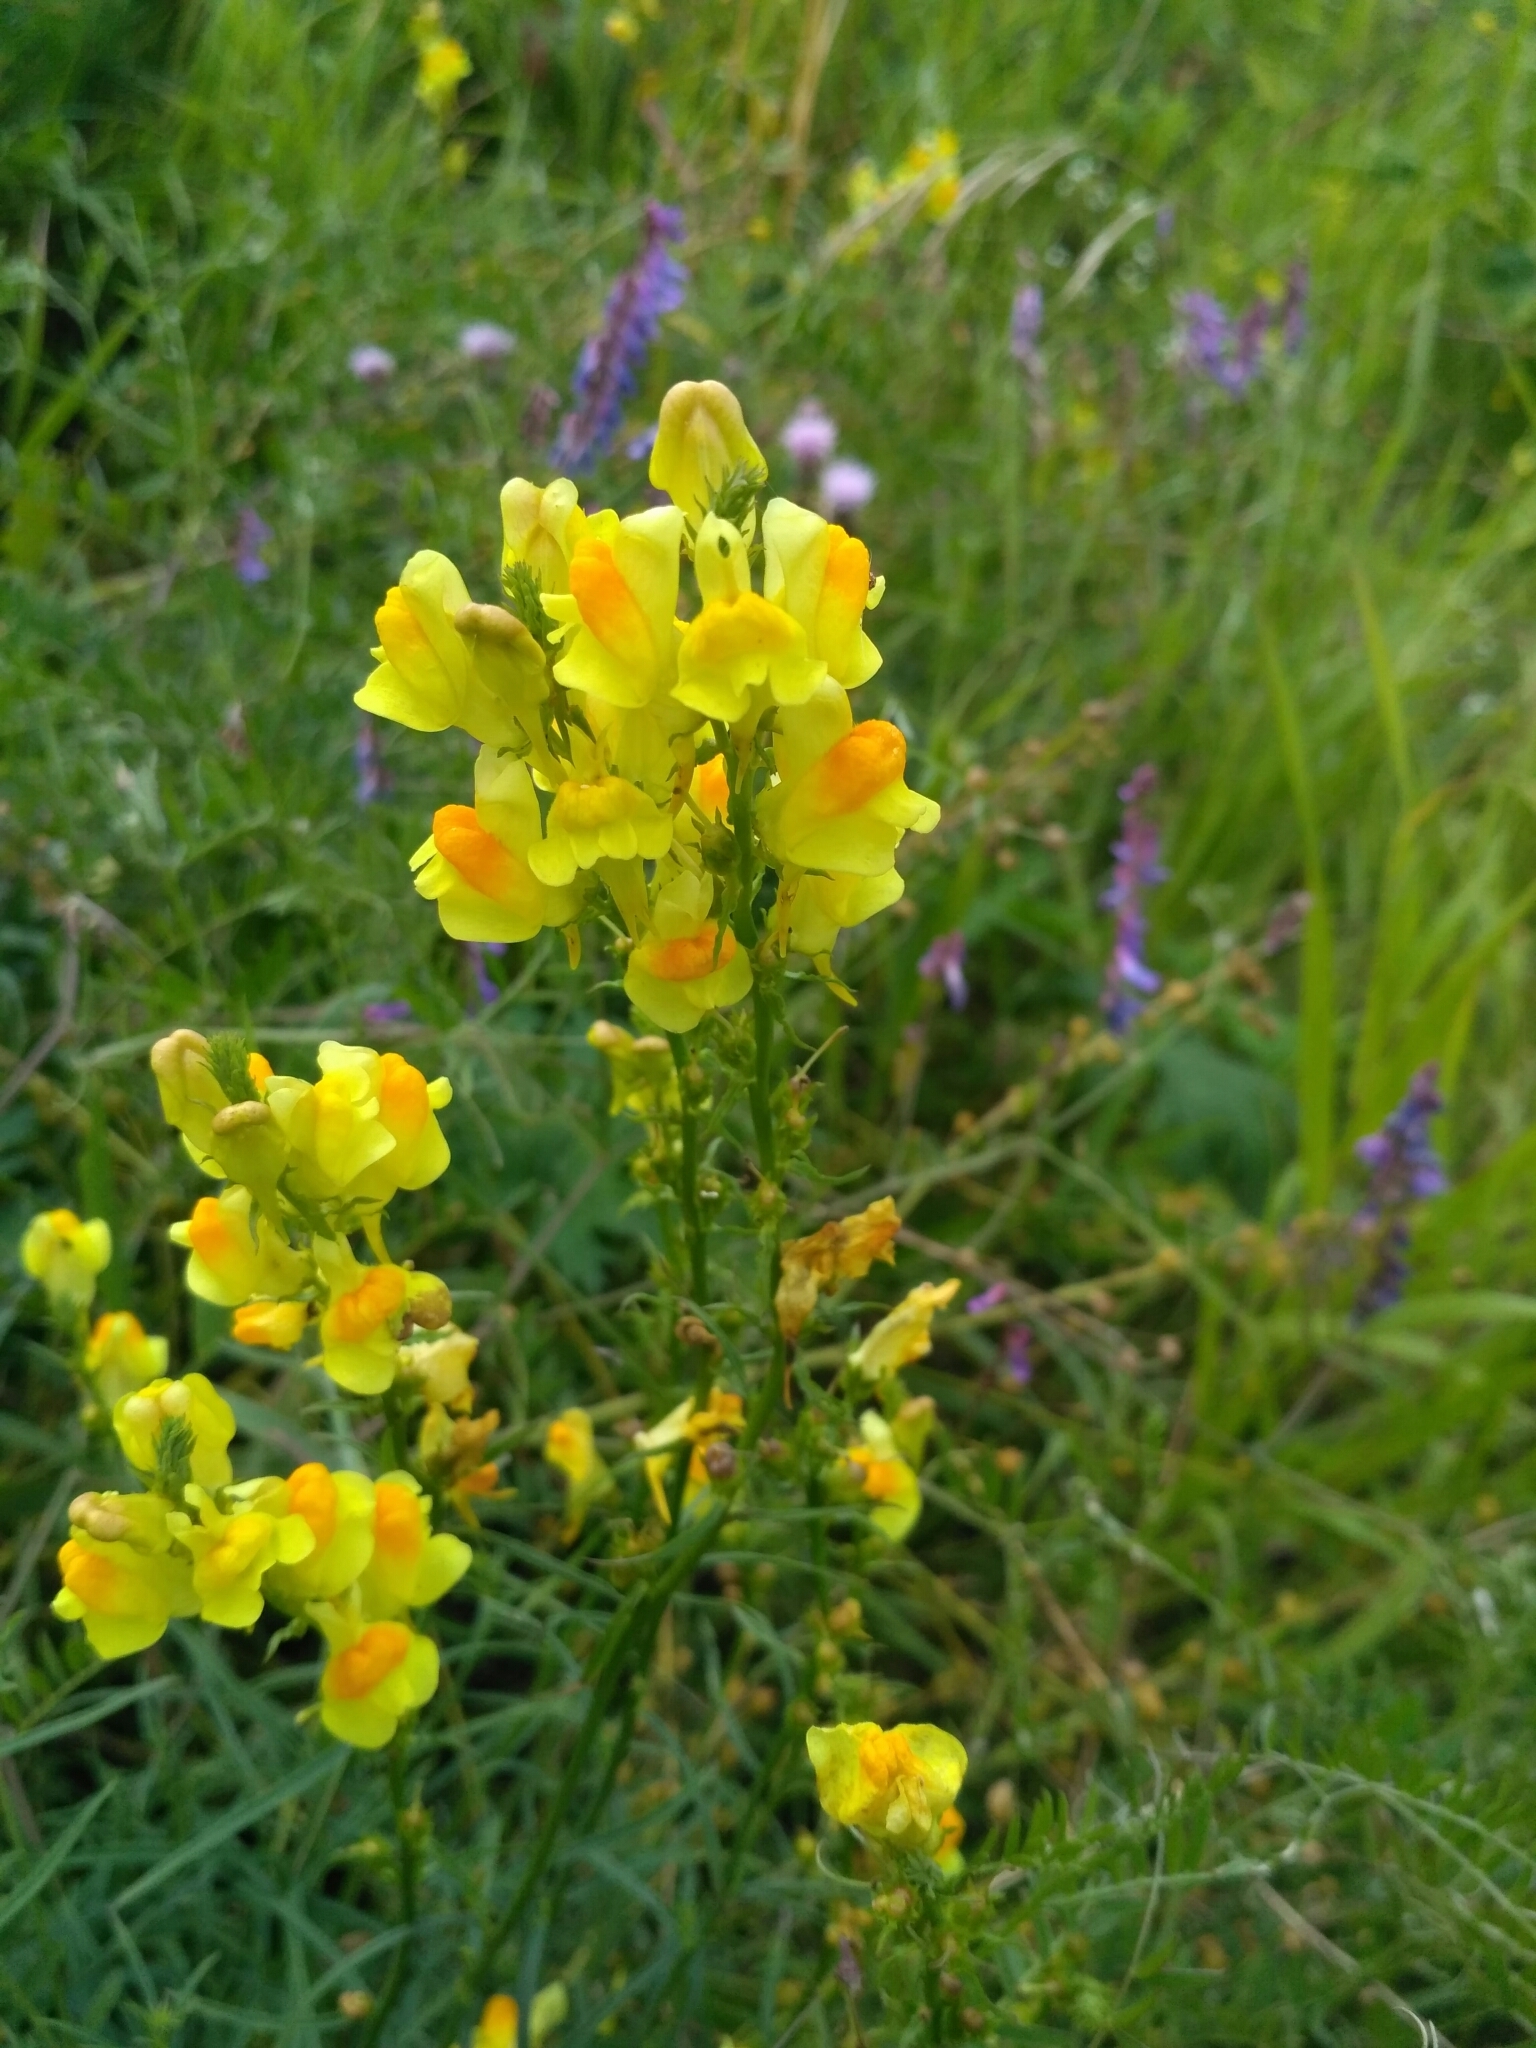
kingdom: Plantae
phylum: Tracheophyta
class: Magnoliopsida
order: Lamiales
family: Plantaginaceae
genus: Linaria
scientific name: Linaria vulgaris
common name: Butter and eggs
